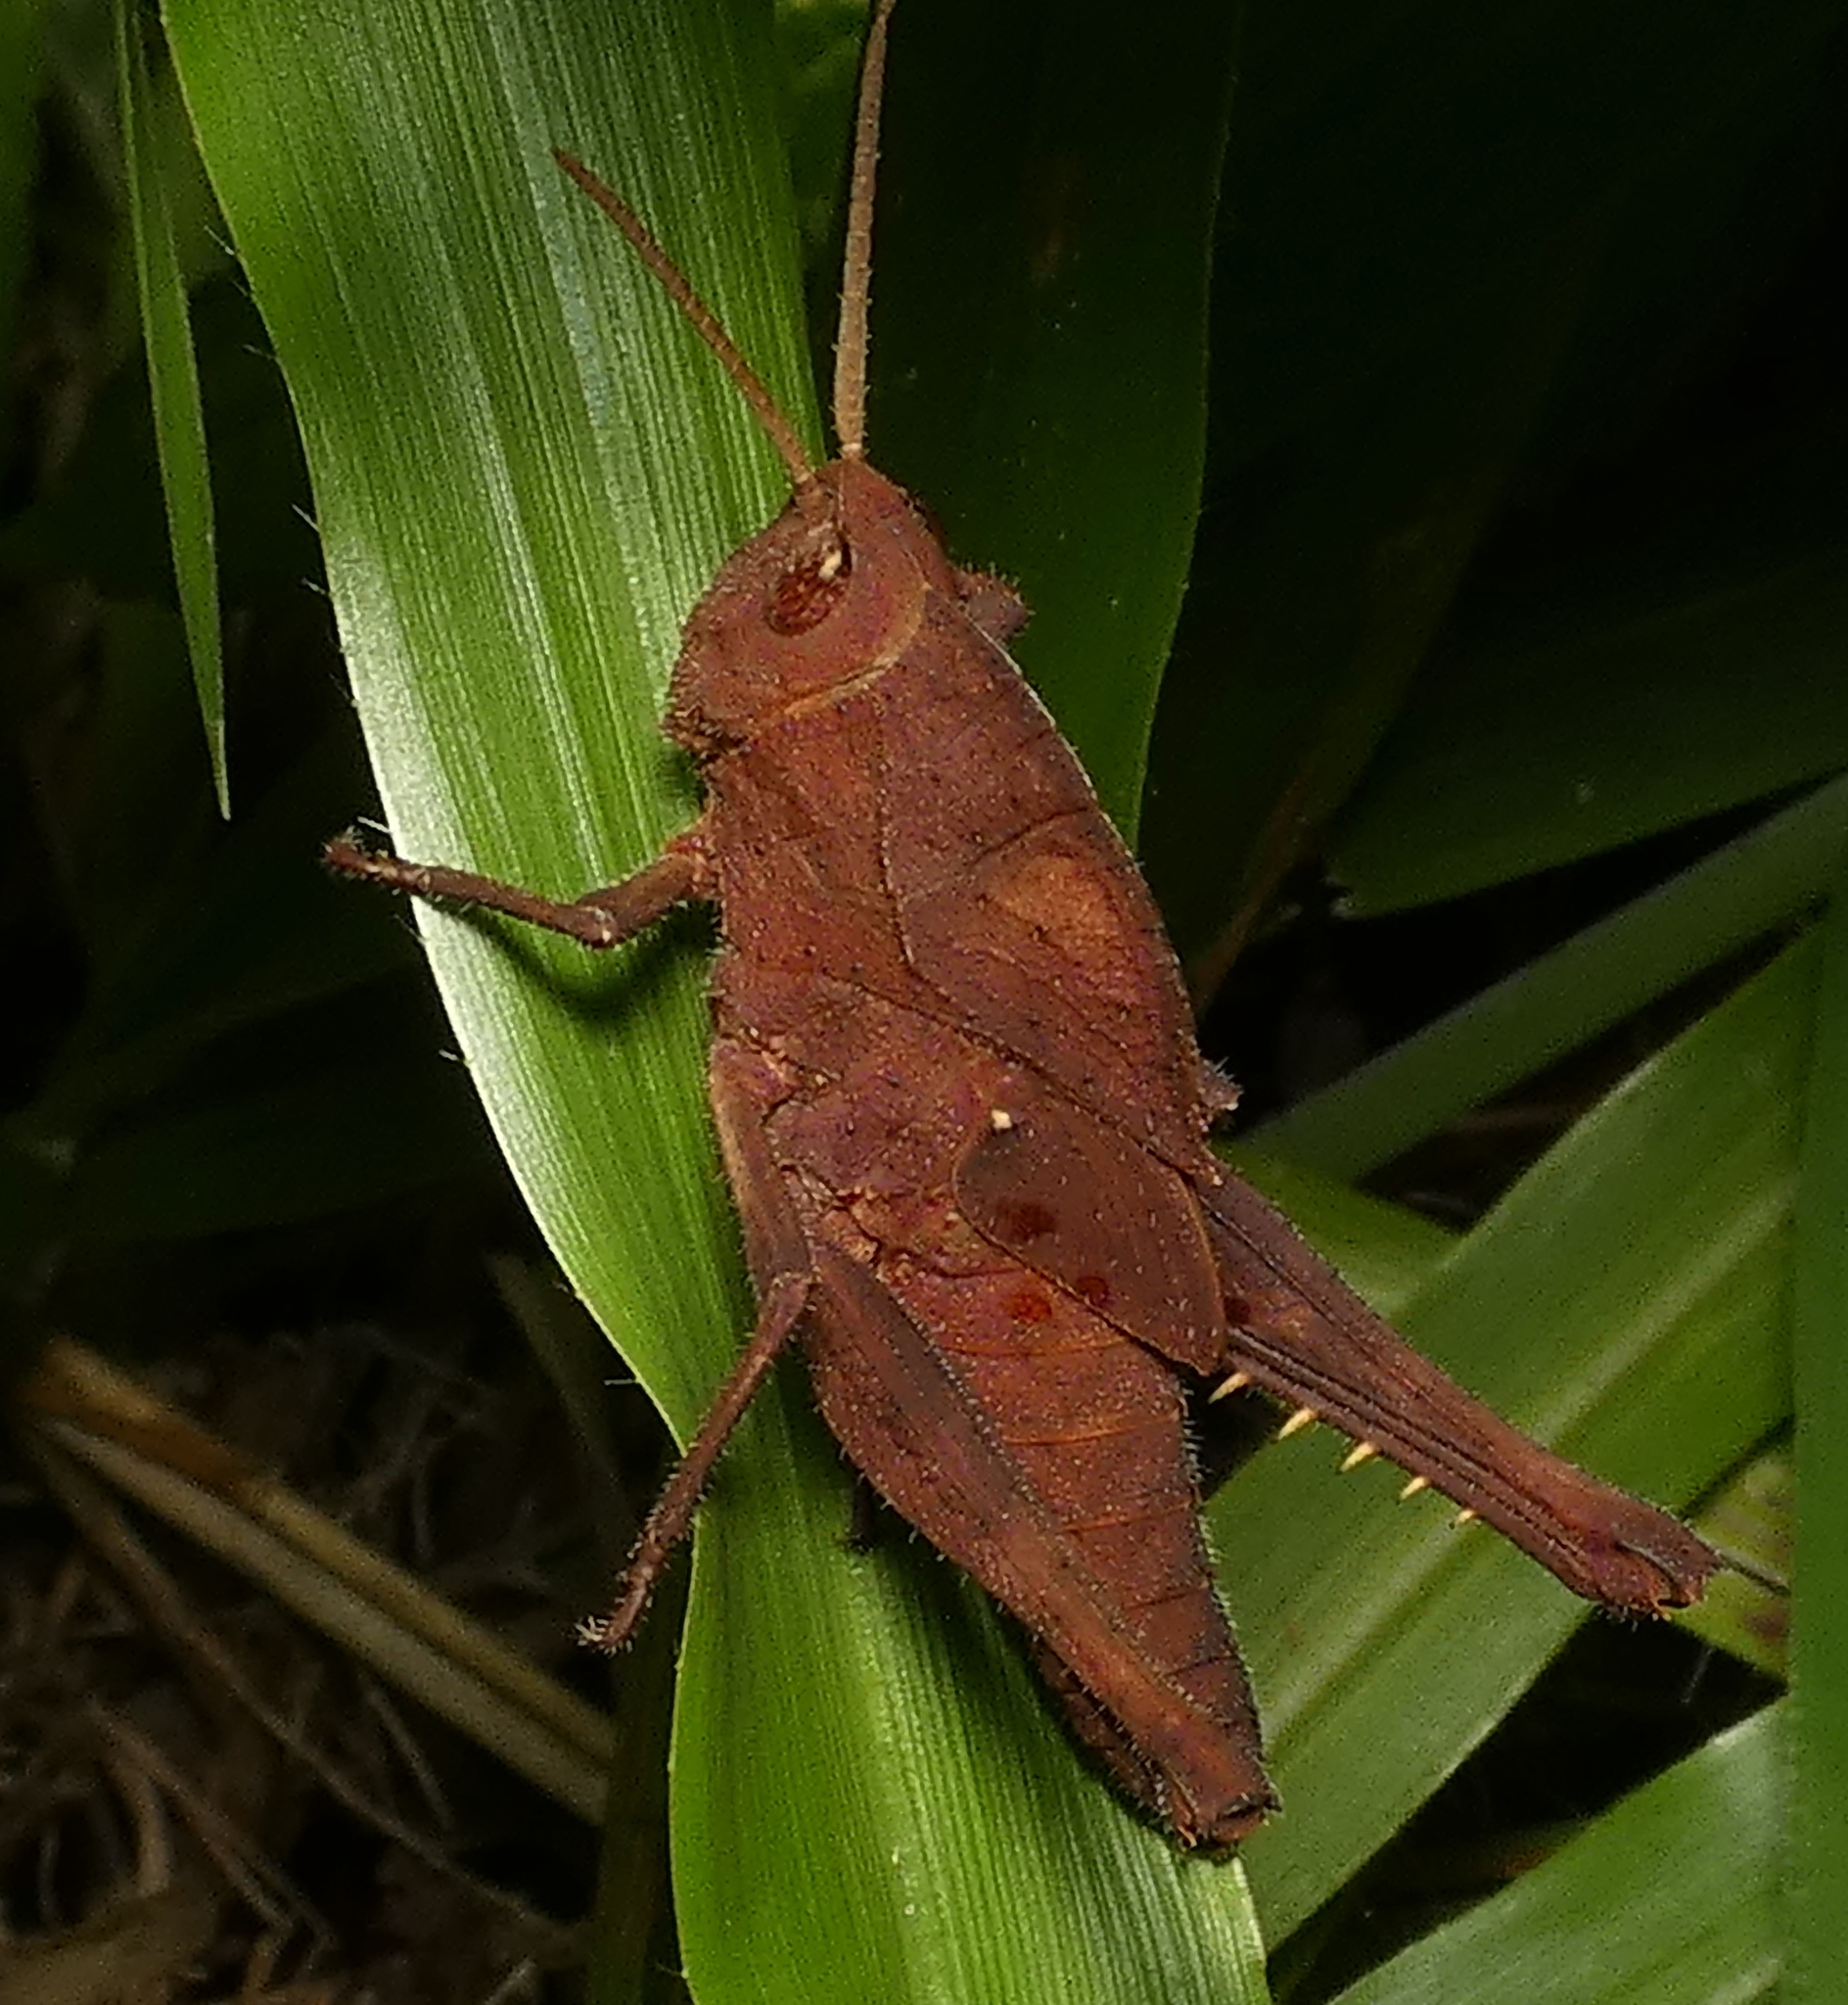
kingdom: Animalia
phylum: Arthropoda
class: Insecta
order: Orthoptera
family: Romaleidae
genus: Xyleus
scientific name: Xyleus discoideus
